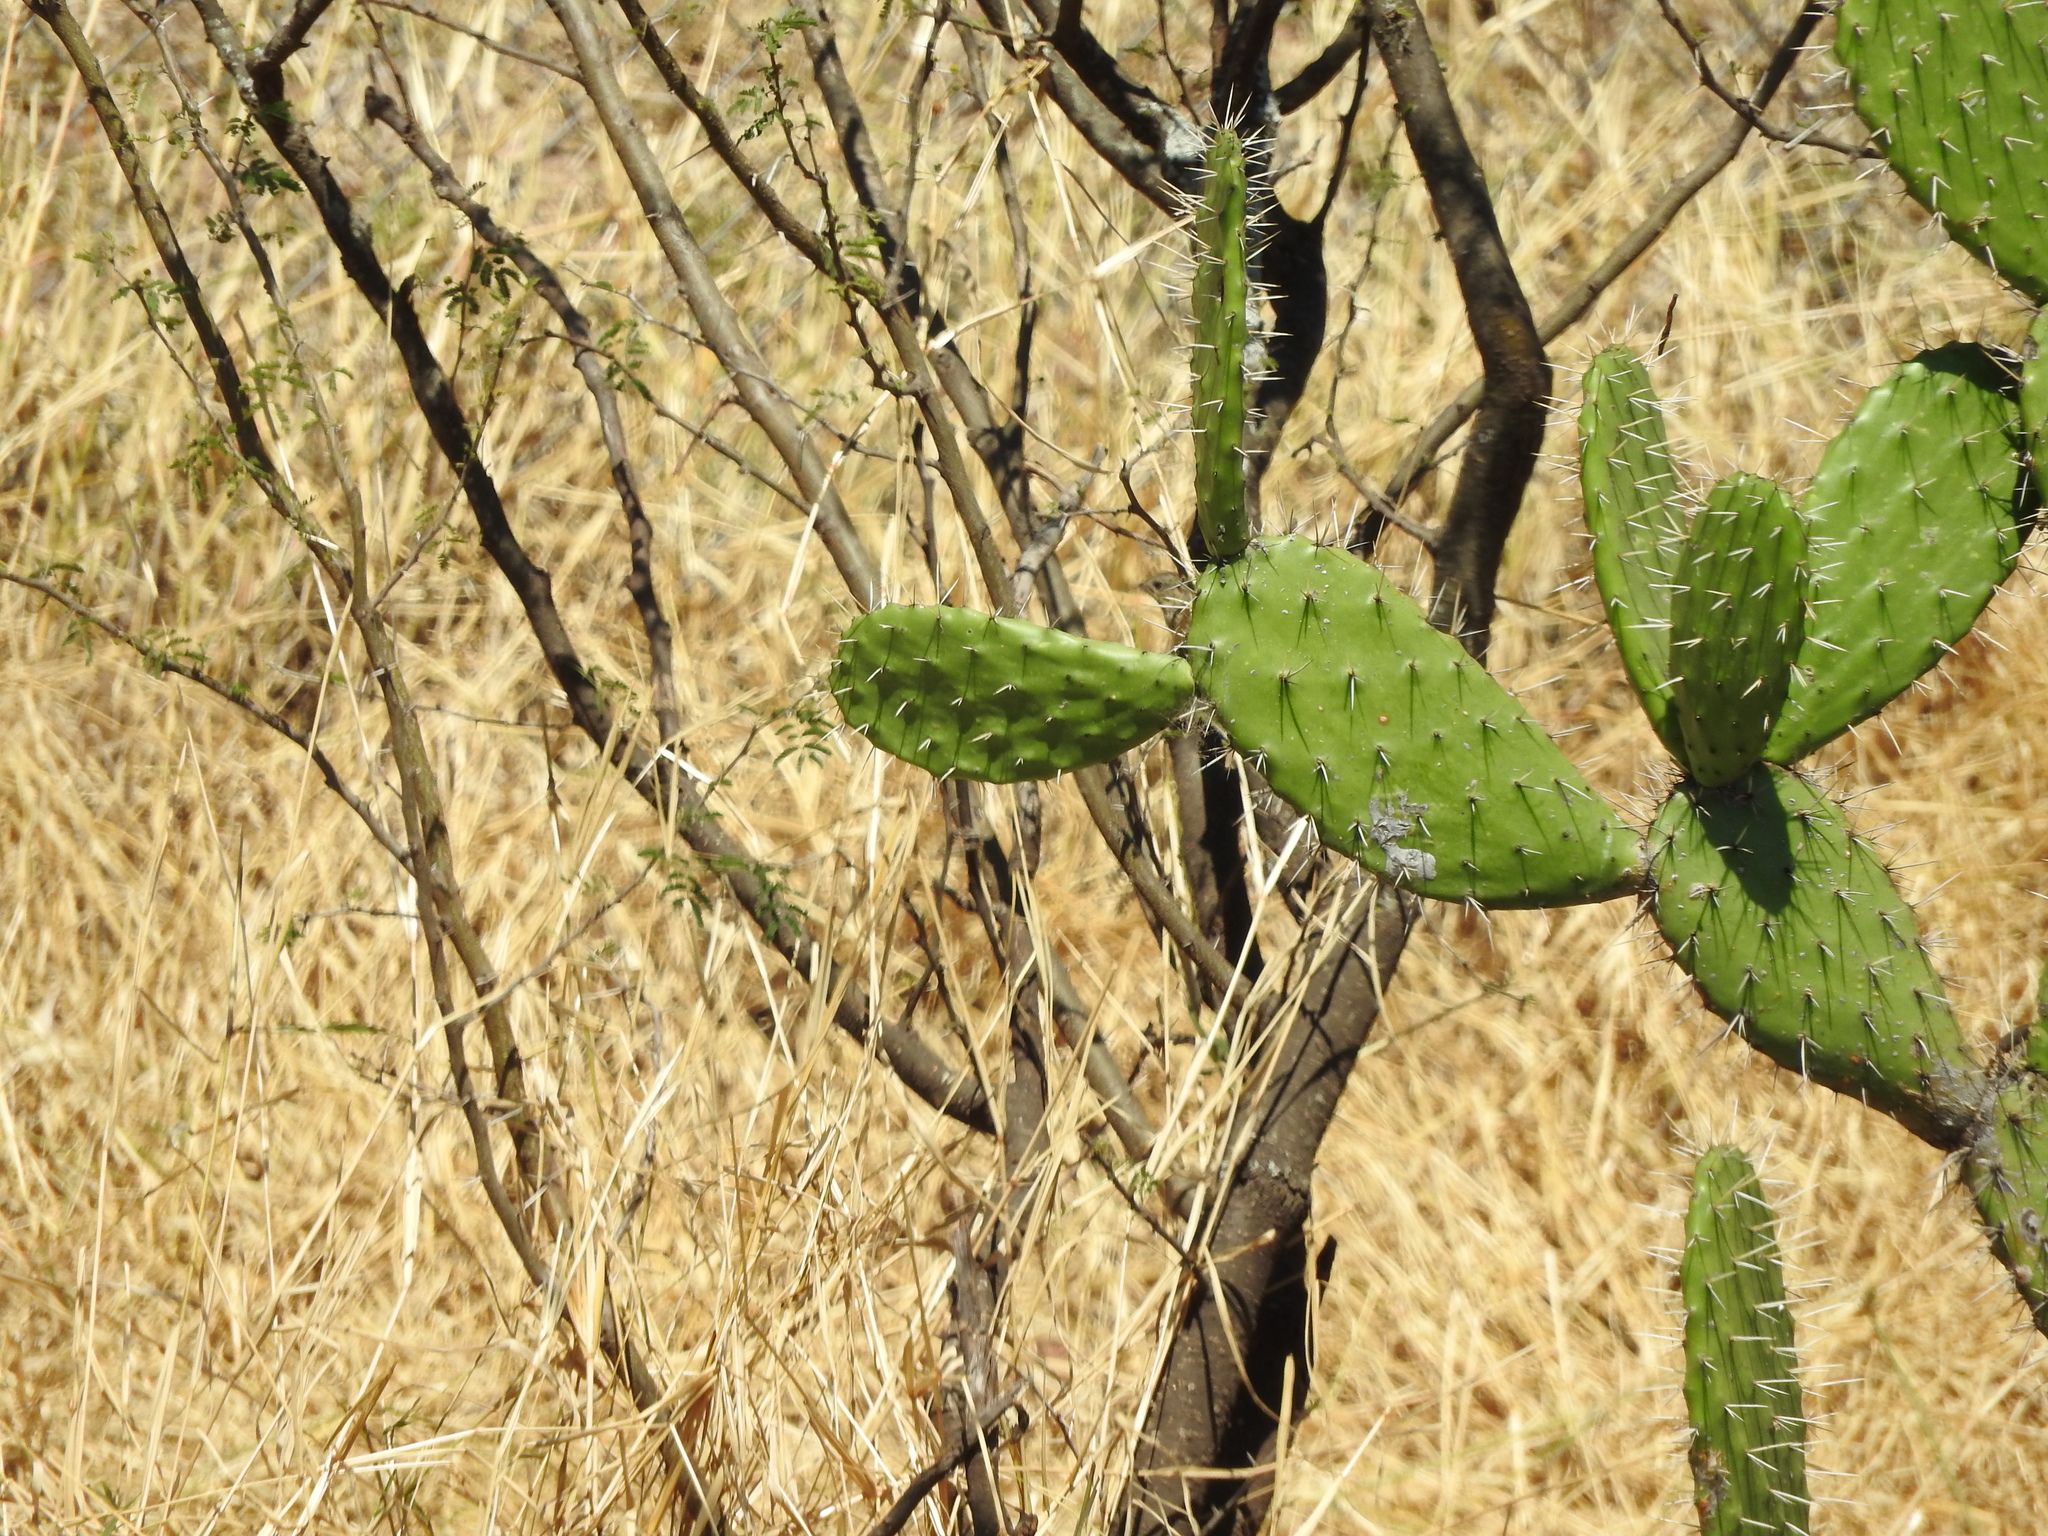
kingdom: Plantae
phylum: Tracheophyta
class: Magnoliopsida
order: Caryophyllales
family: Cactaceae
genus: Opuntia
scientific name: Opuntia tomentosa
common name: Woollyjoint pricklypear
